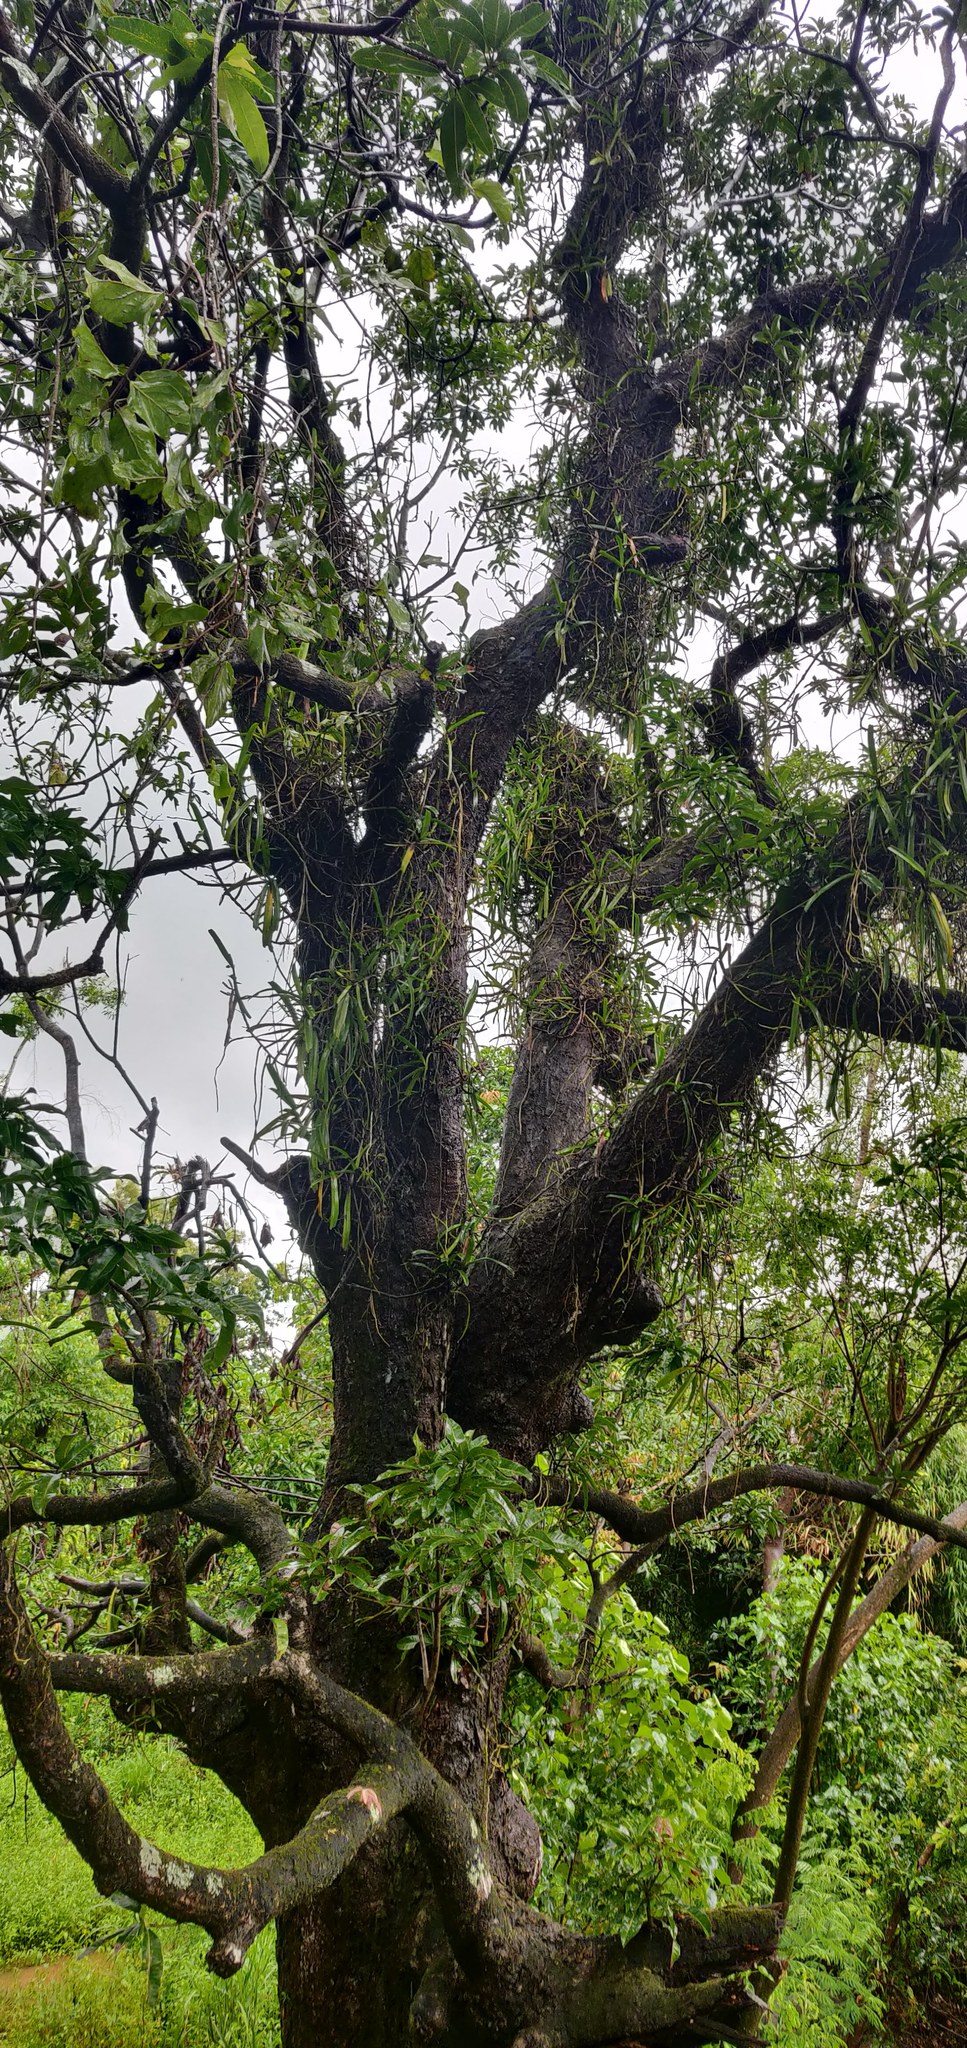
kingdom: Plantae
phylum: Tracheophyta
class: Liliopsida
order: Asparagales
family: Orchidaceae
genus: Cottonia
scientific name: Cottonia peduncularis
